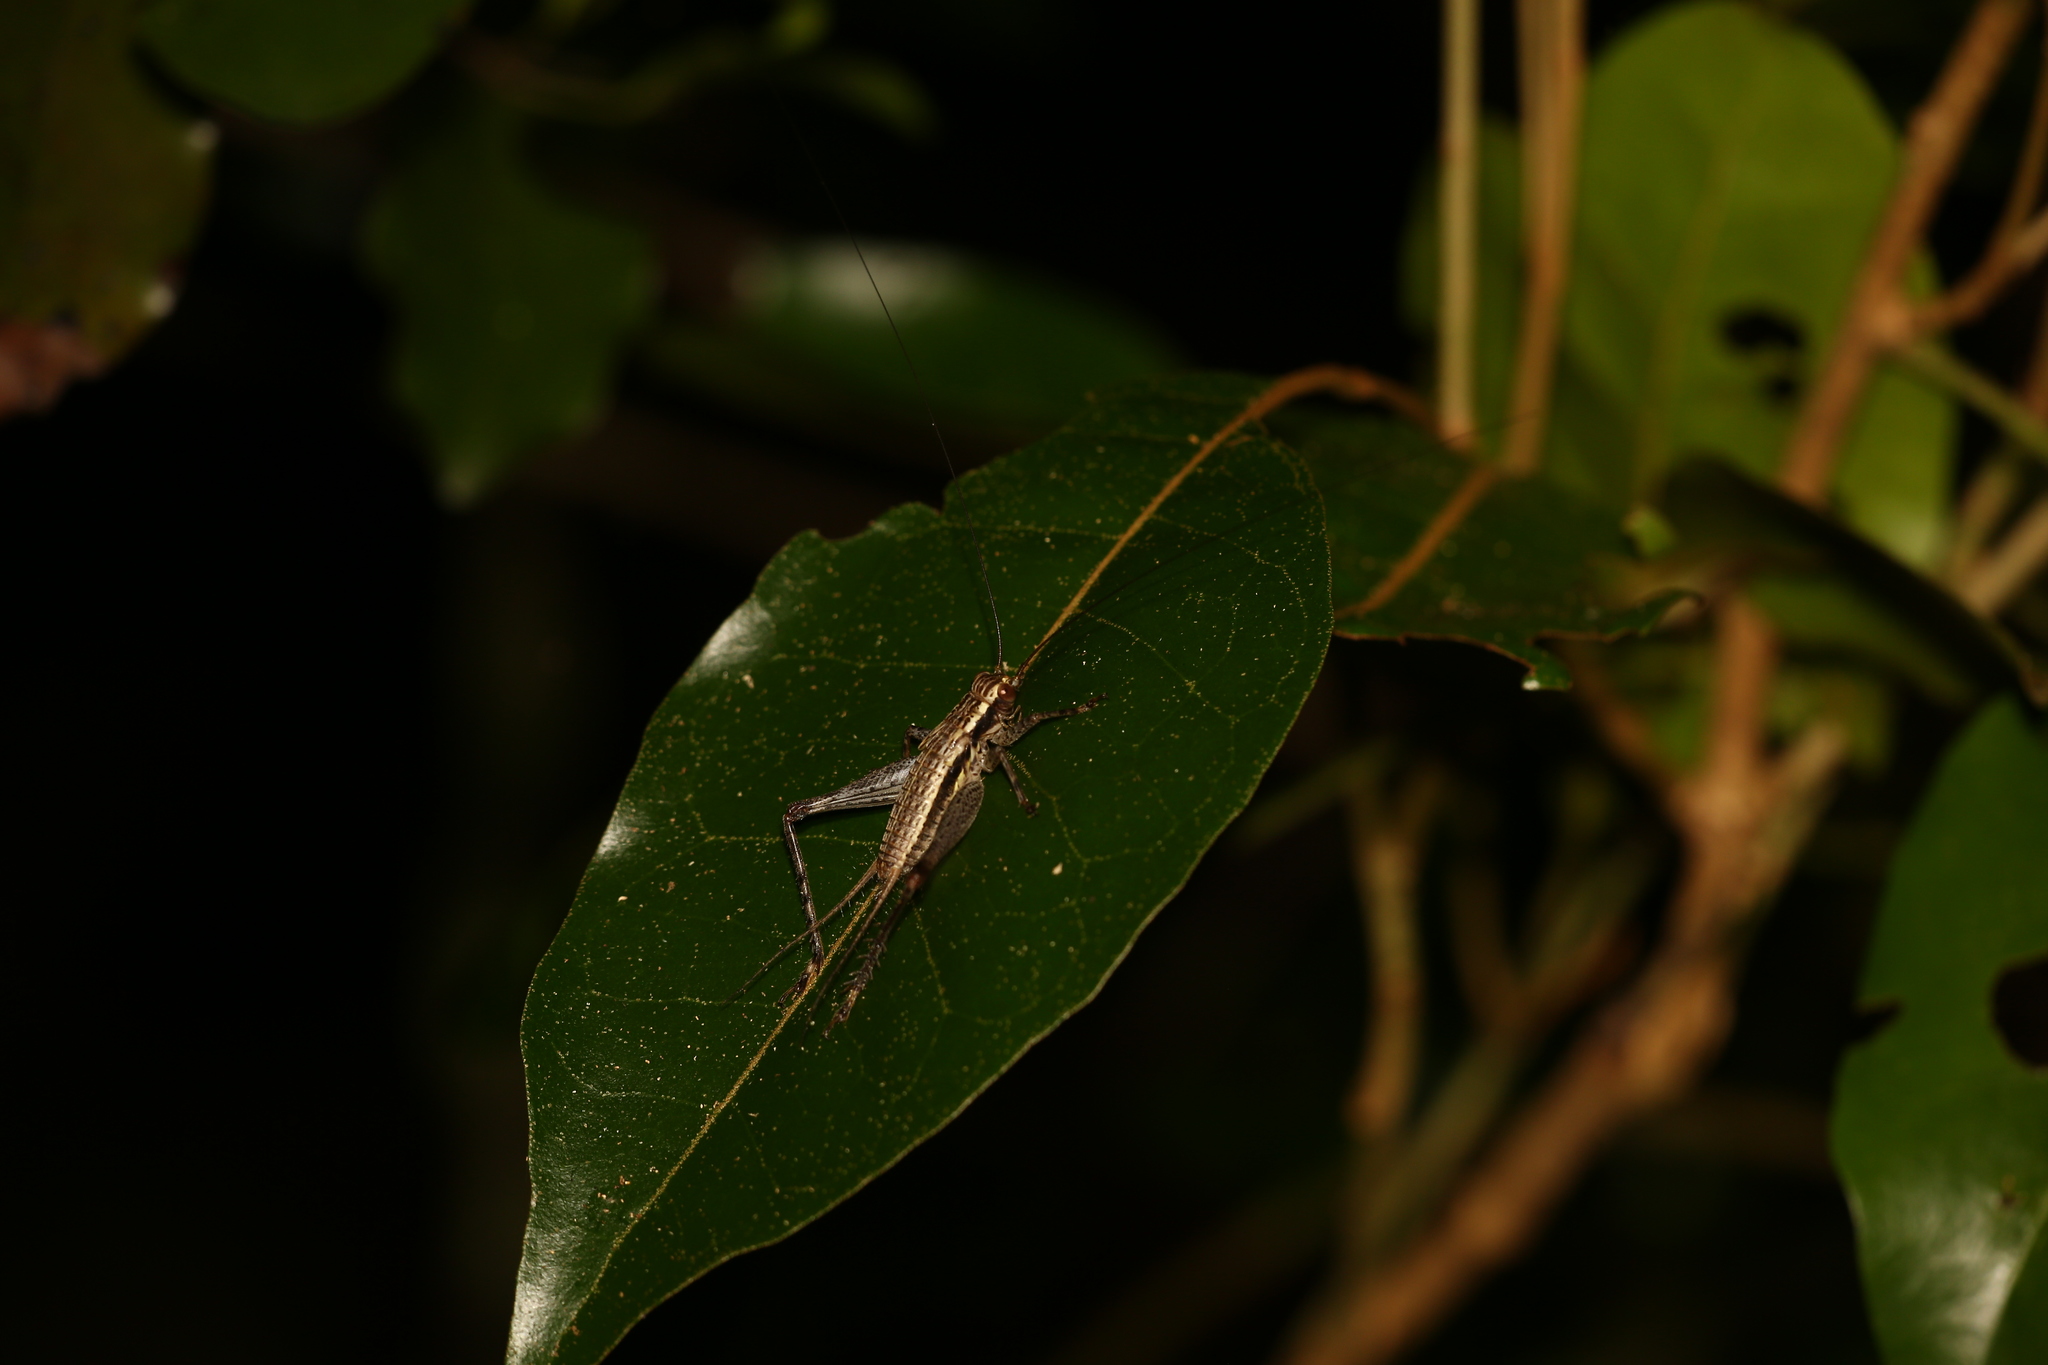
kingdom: Animalia
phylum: Arthropoda
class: Insecta
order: Orthoptera
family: Gryllidae
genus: Cardiodactylus
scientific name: Cardiodactylus novaeguineae
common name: Sad cricket
